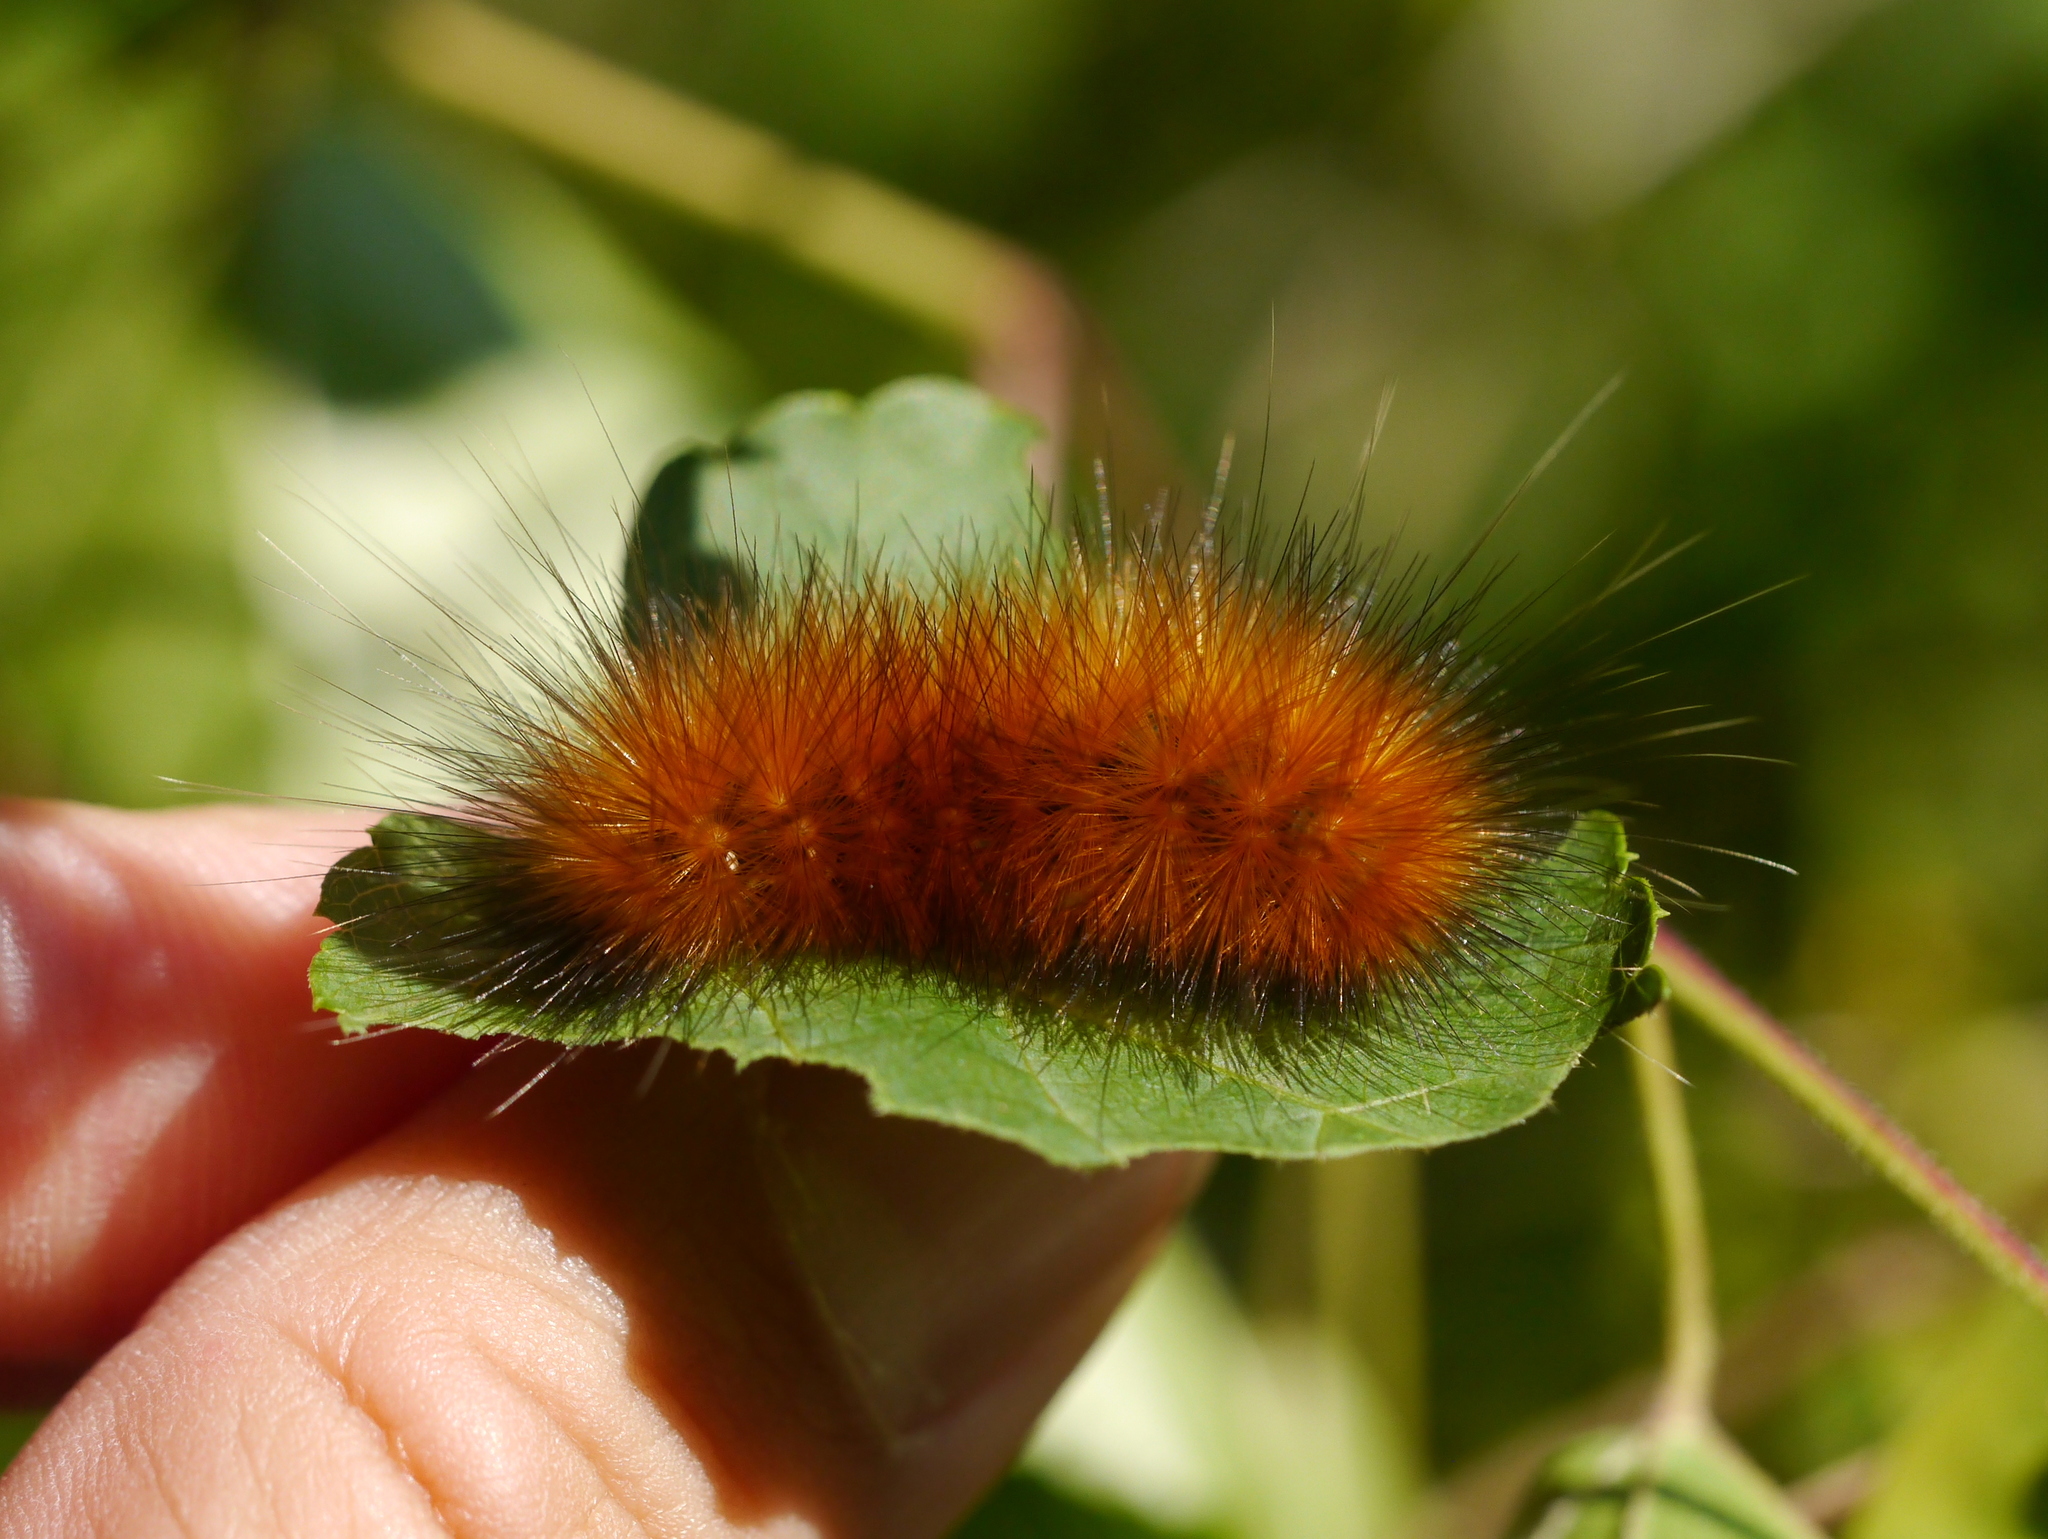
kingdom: Animalia
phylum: Arthropoda
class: Insecta
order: Lepidoptera
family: Erebidae
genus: Spilosoma
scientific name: Spilosoma virginica
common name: Virginia tiger moth
